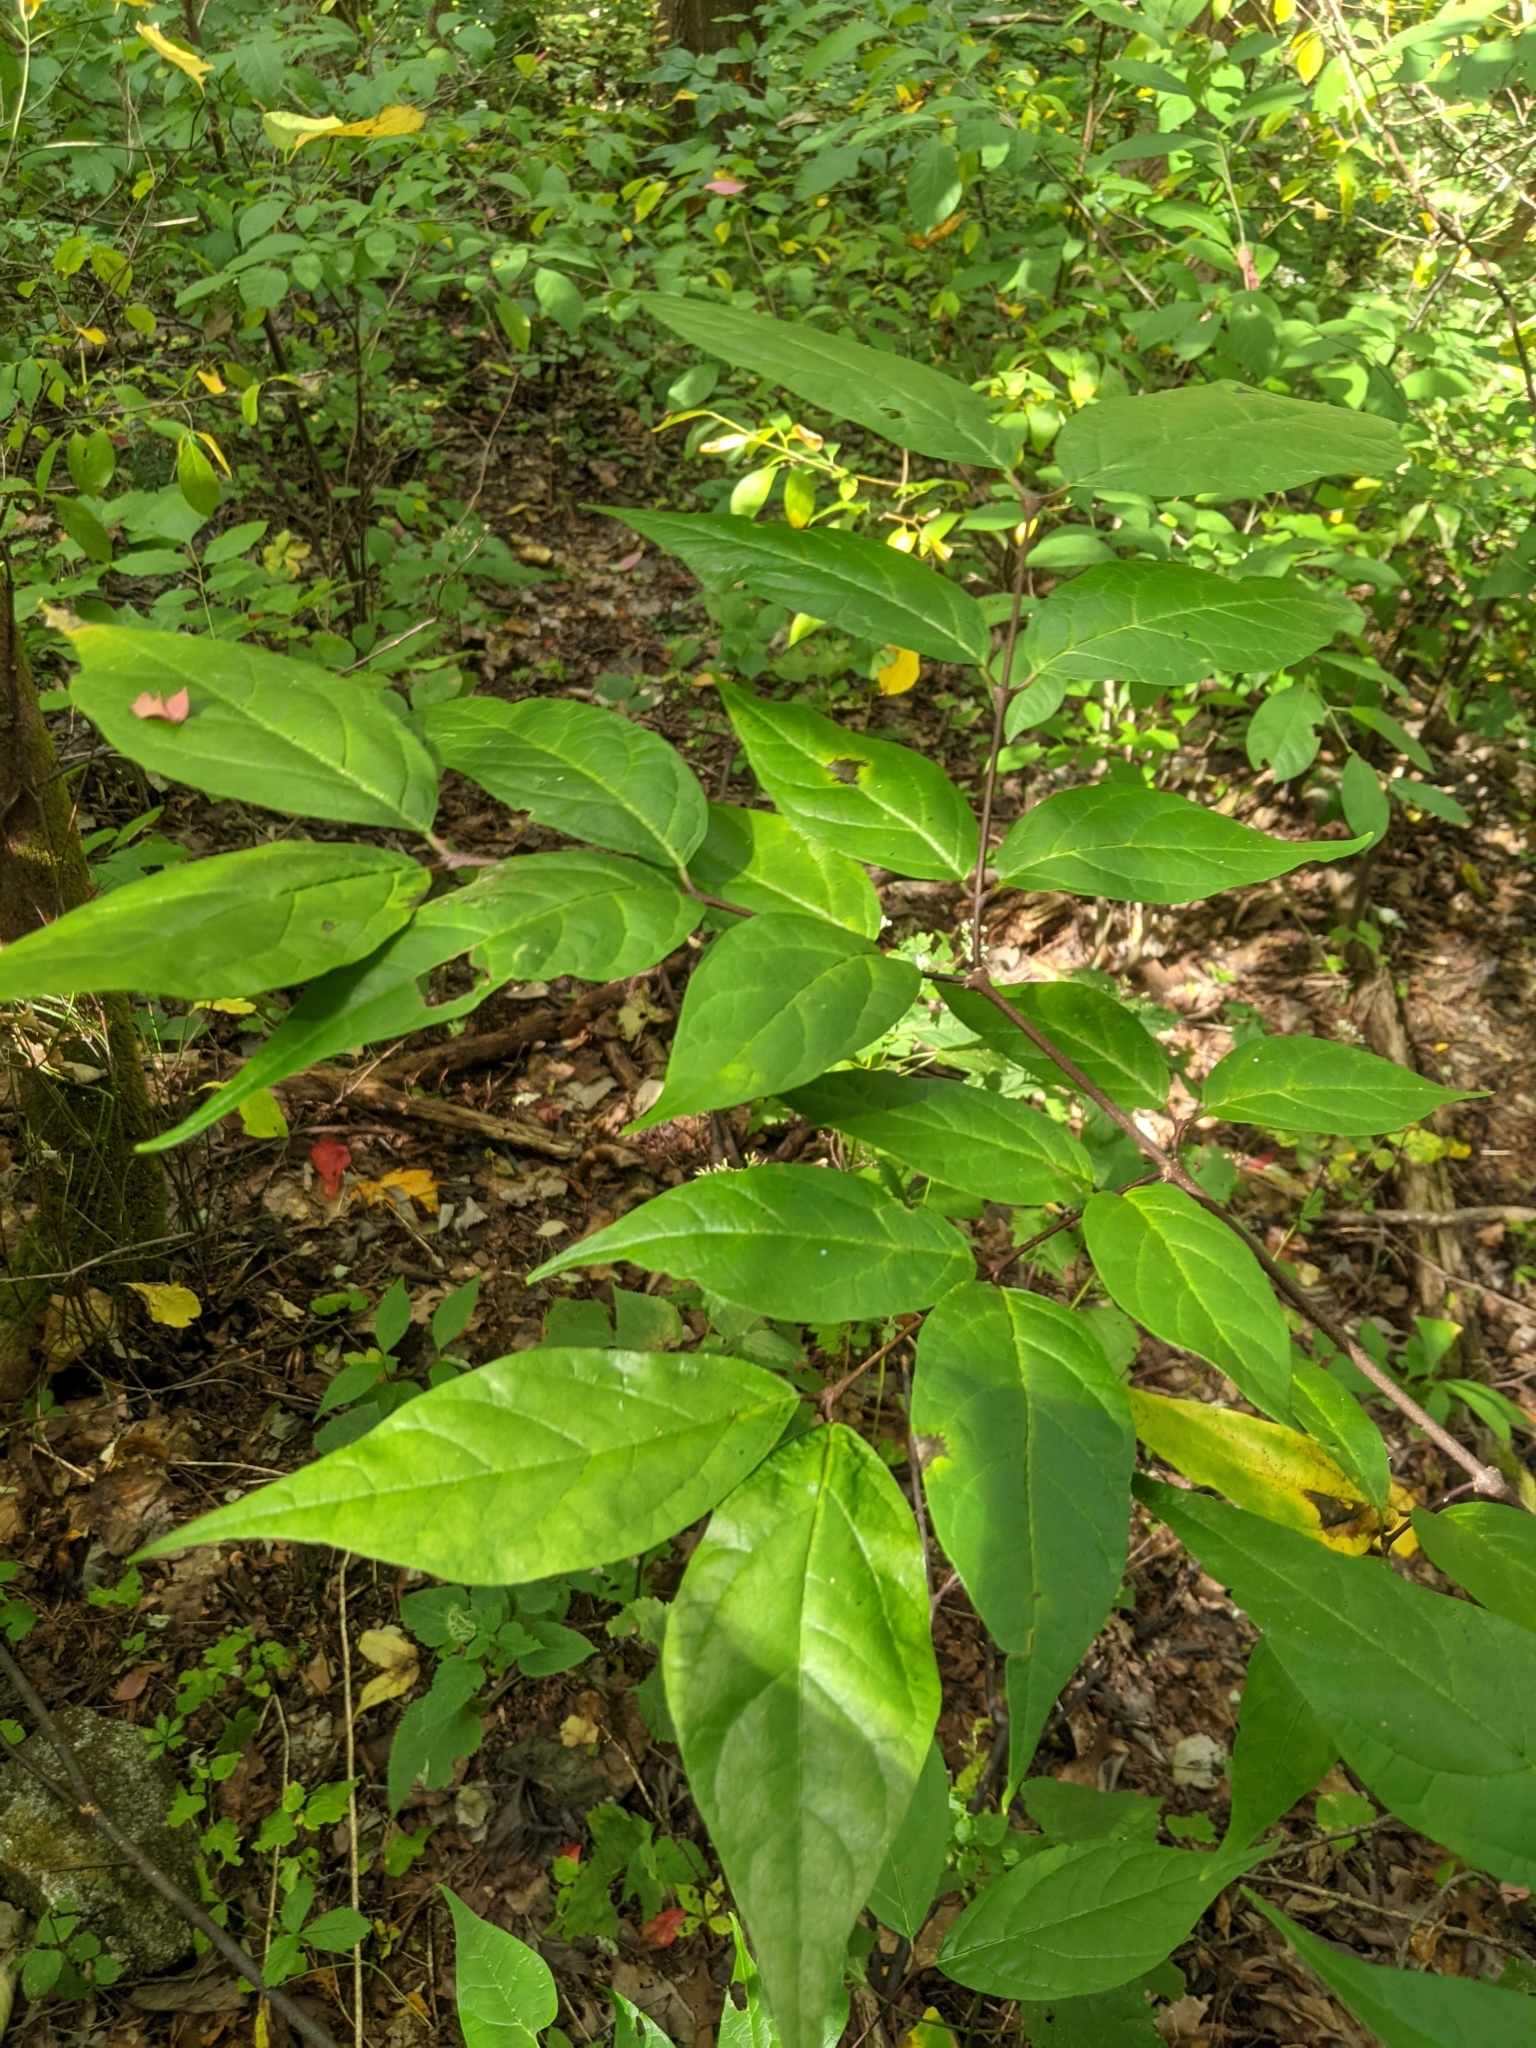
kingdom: Plantae
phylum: Tracheophyta
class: Magnoliopsida
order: Dipsacales
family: Caprifoliaceae
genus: Diervilla
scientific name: Diervilla sessilifolia
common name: Bush-honeysuckle
